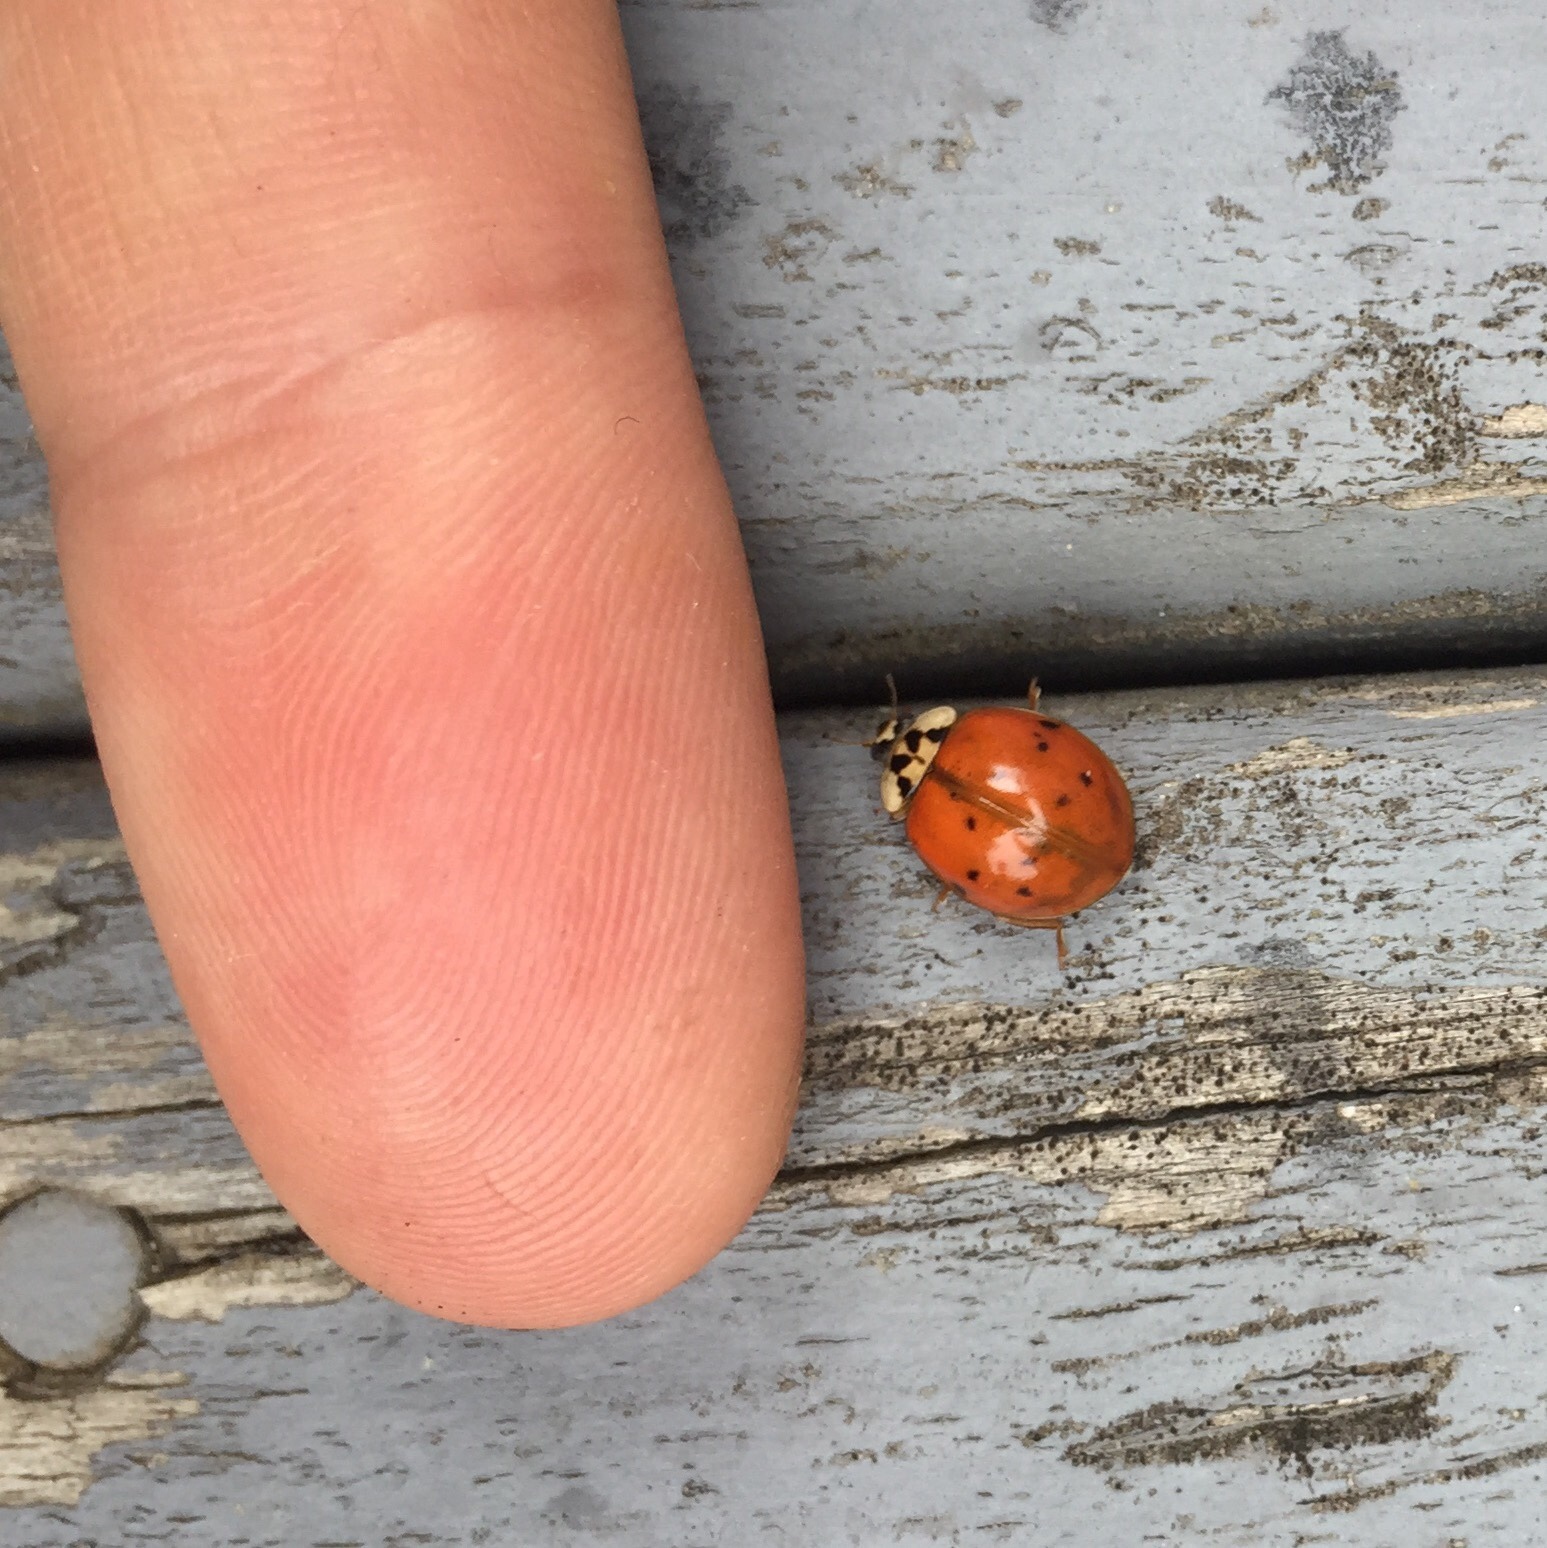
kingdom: Animalia
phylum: Arthropoda
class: Insecta
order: Coleoptera
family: Coccinellidae
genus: Harmonia
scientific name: Harmonia axyridis
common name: Harlequin ladybird
